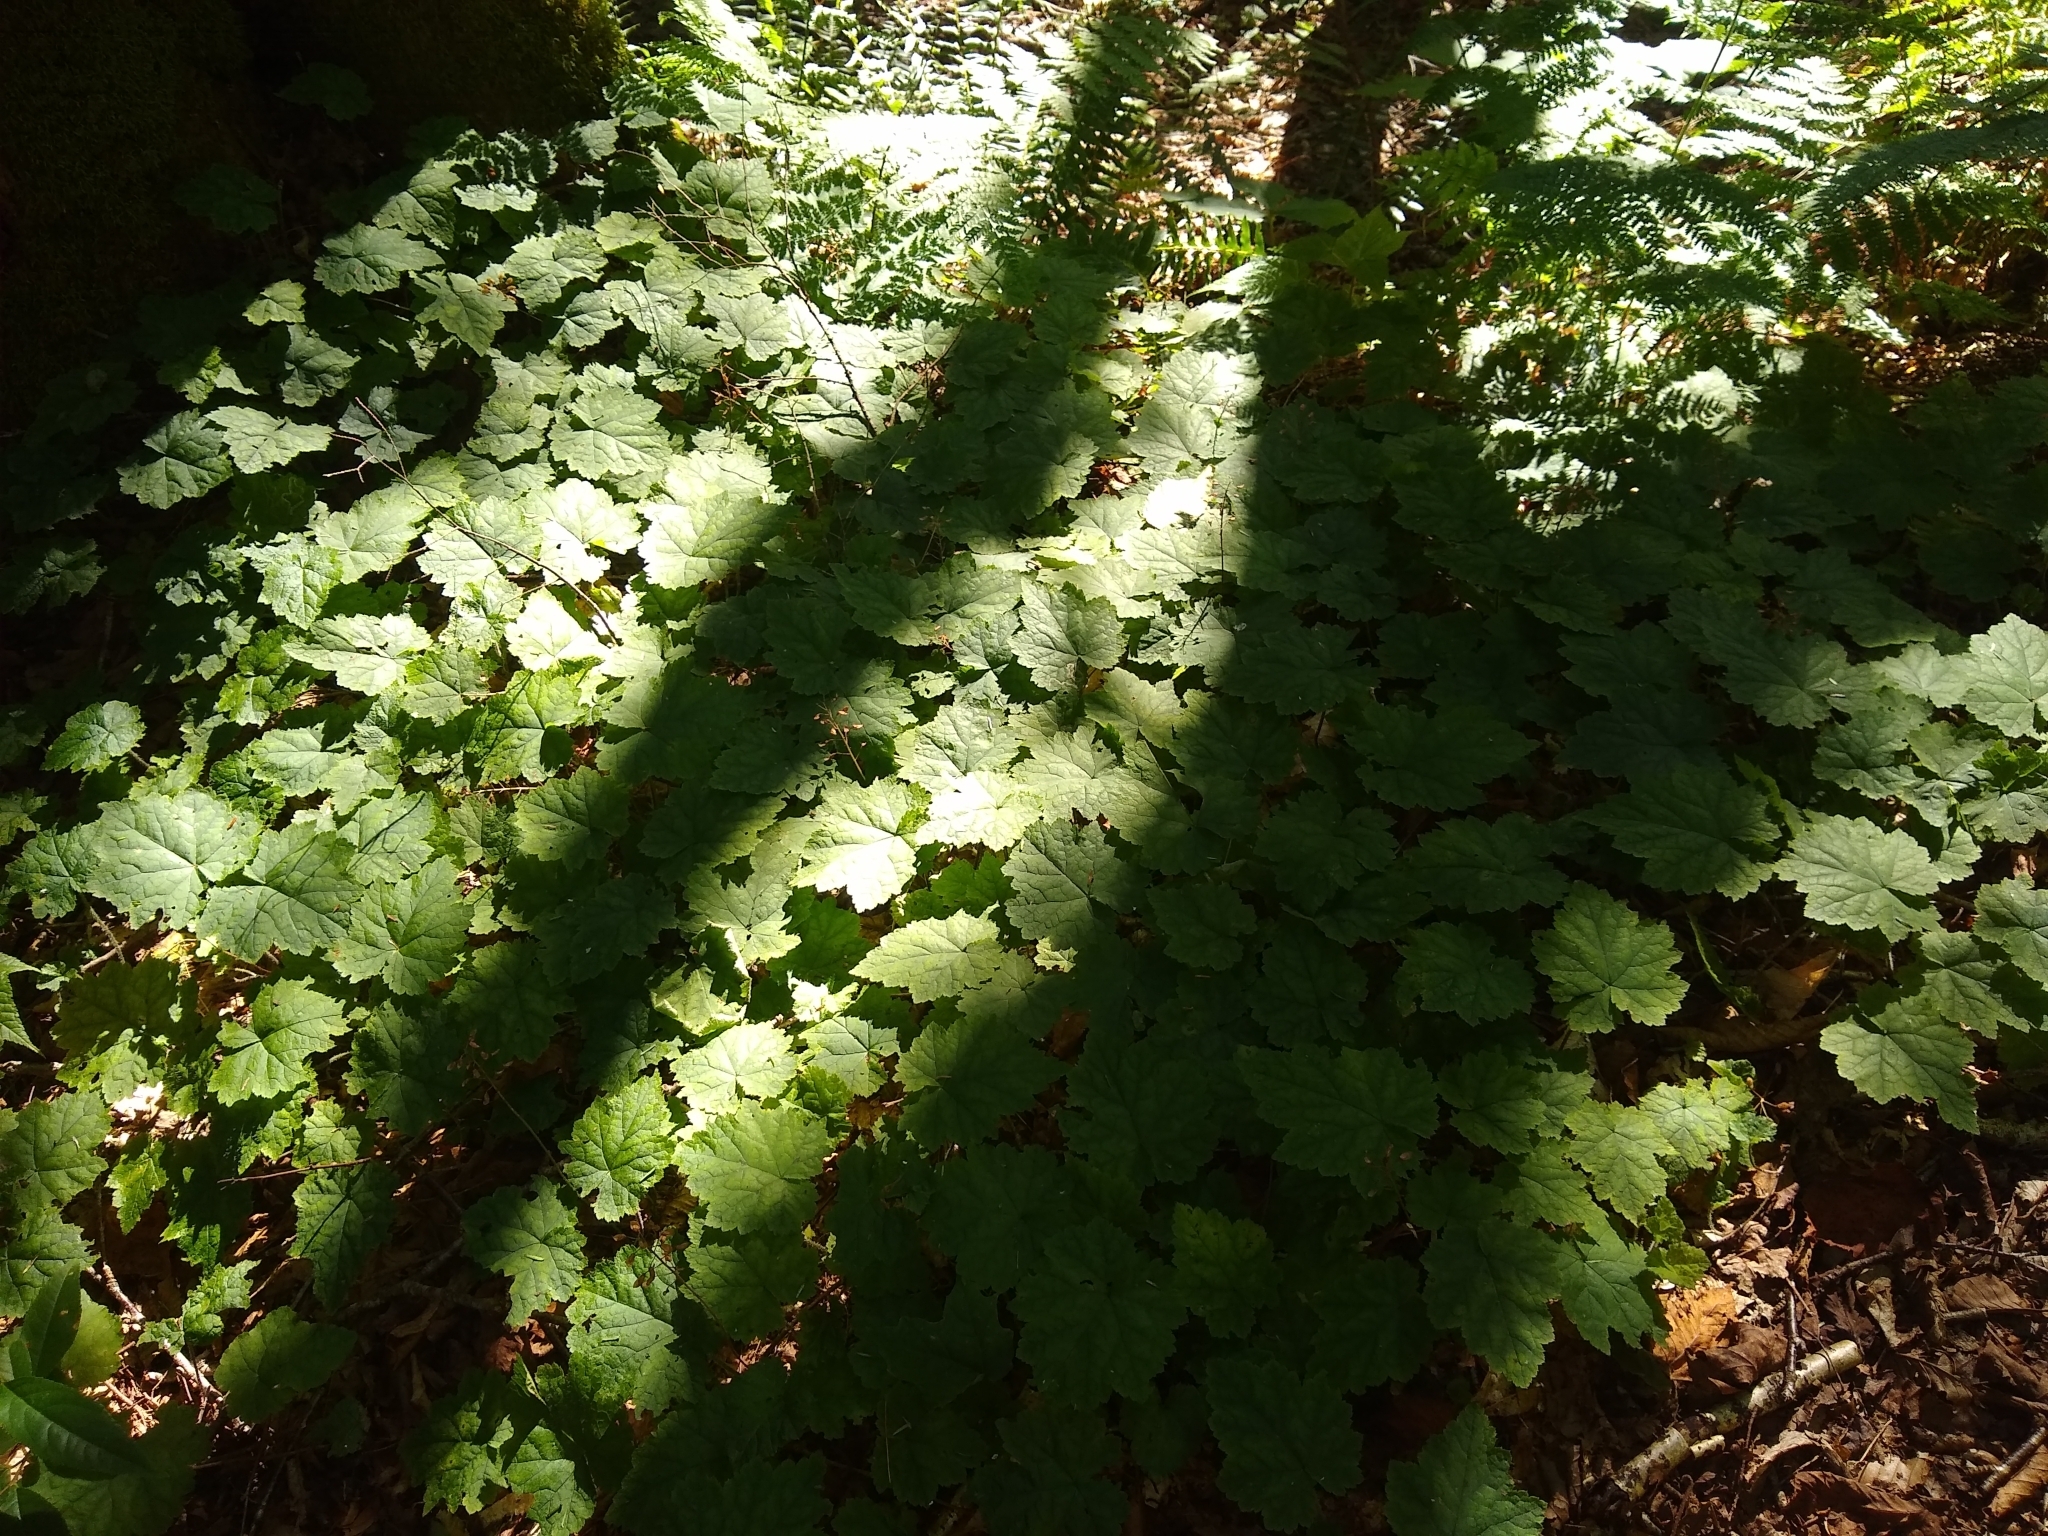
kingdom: Plantae
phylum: Tracheophyta
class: Magnoliopsida
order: Saxifragales
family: Saxifragaceae
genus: Tiarella
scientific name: Tiarella stolonifera
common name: Stoloniferous foamflower
